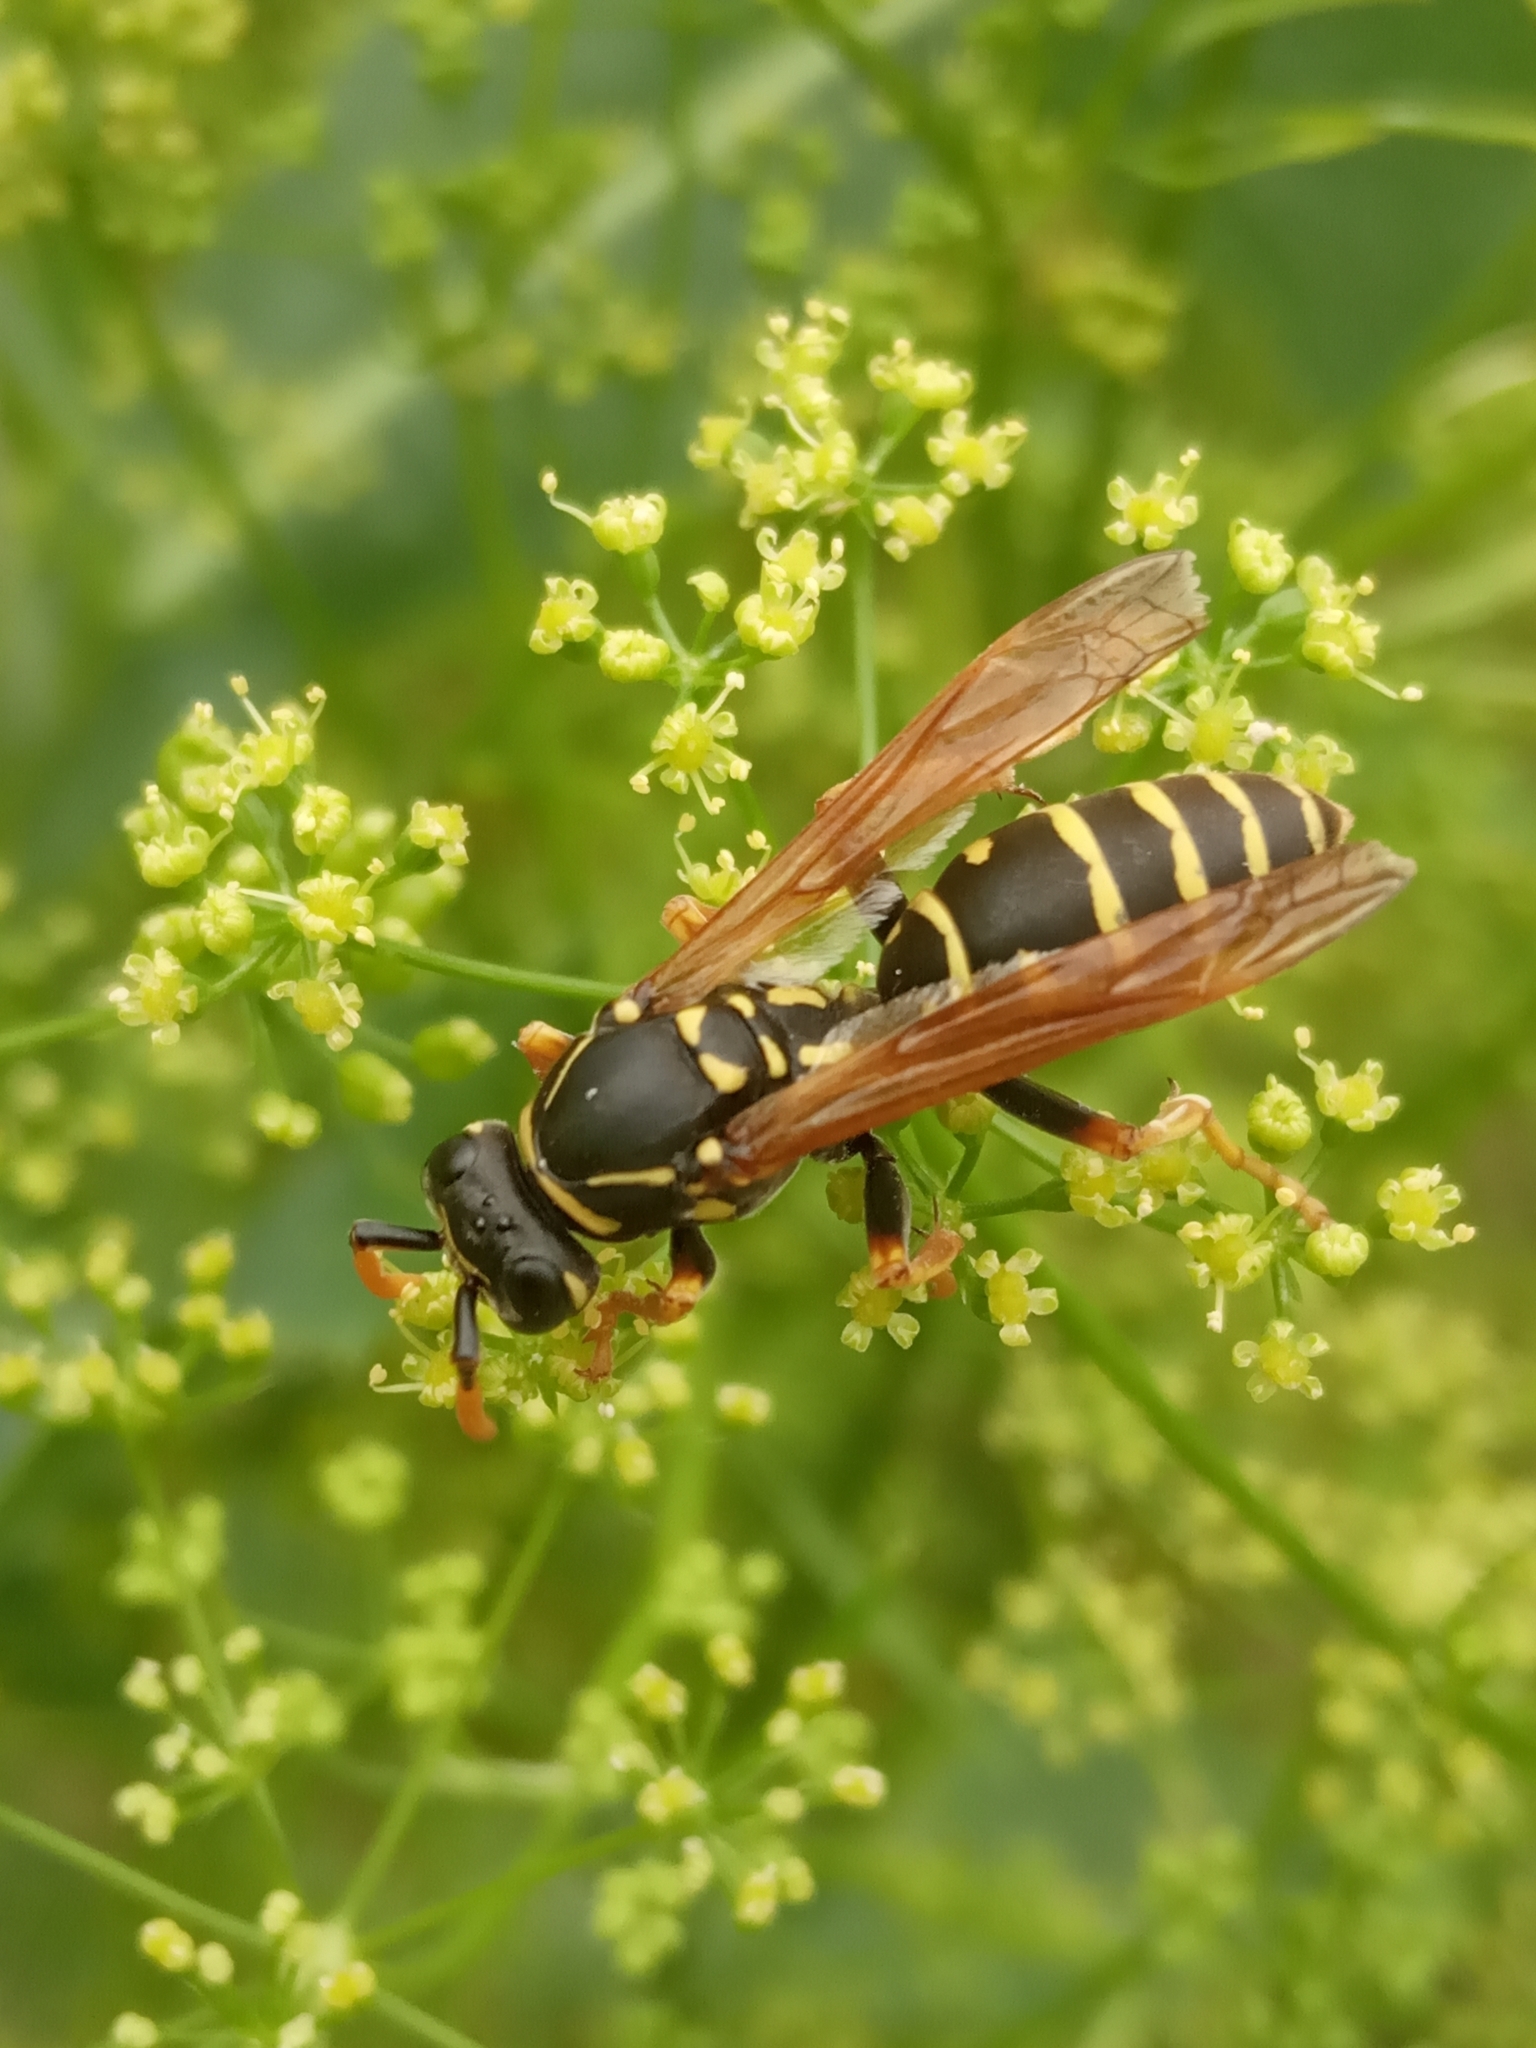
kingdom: Animalia
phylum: Arthropoda
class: Insecta
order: Hymenoptera
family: Eumenidae
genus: Polistes
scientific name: Polistes
